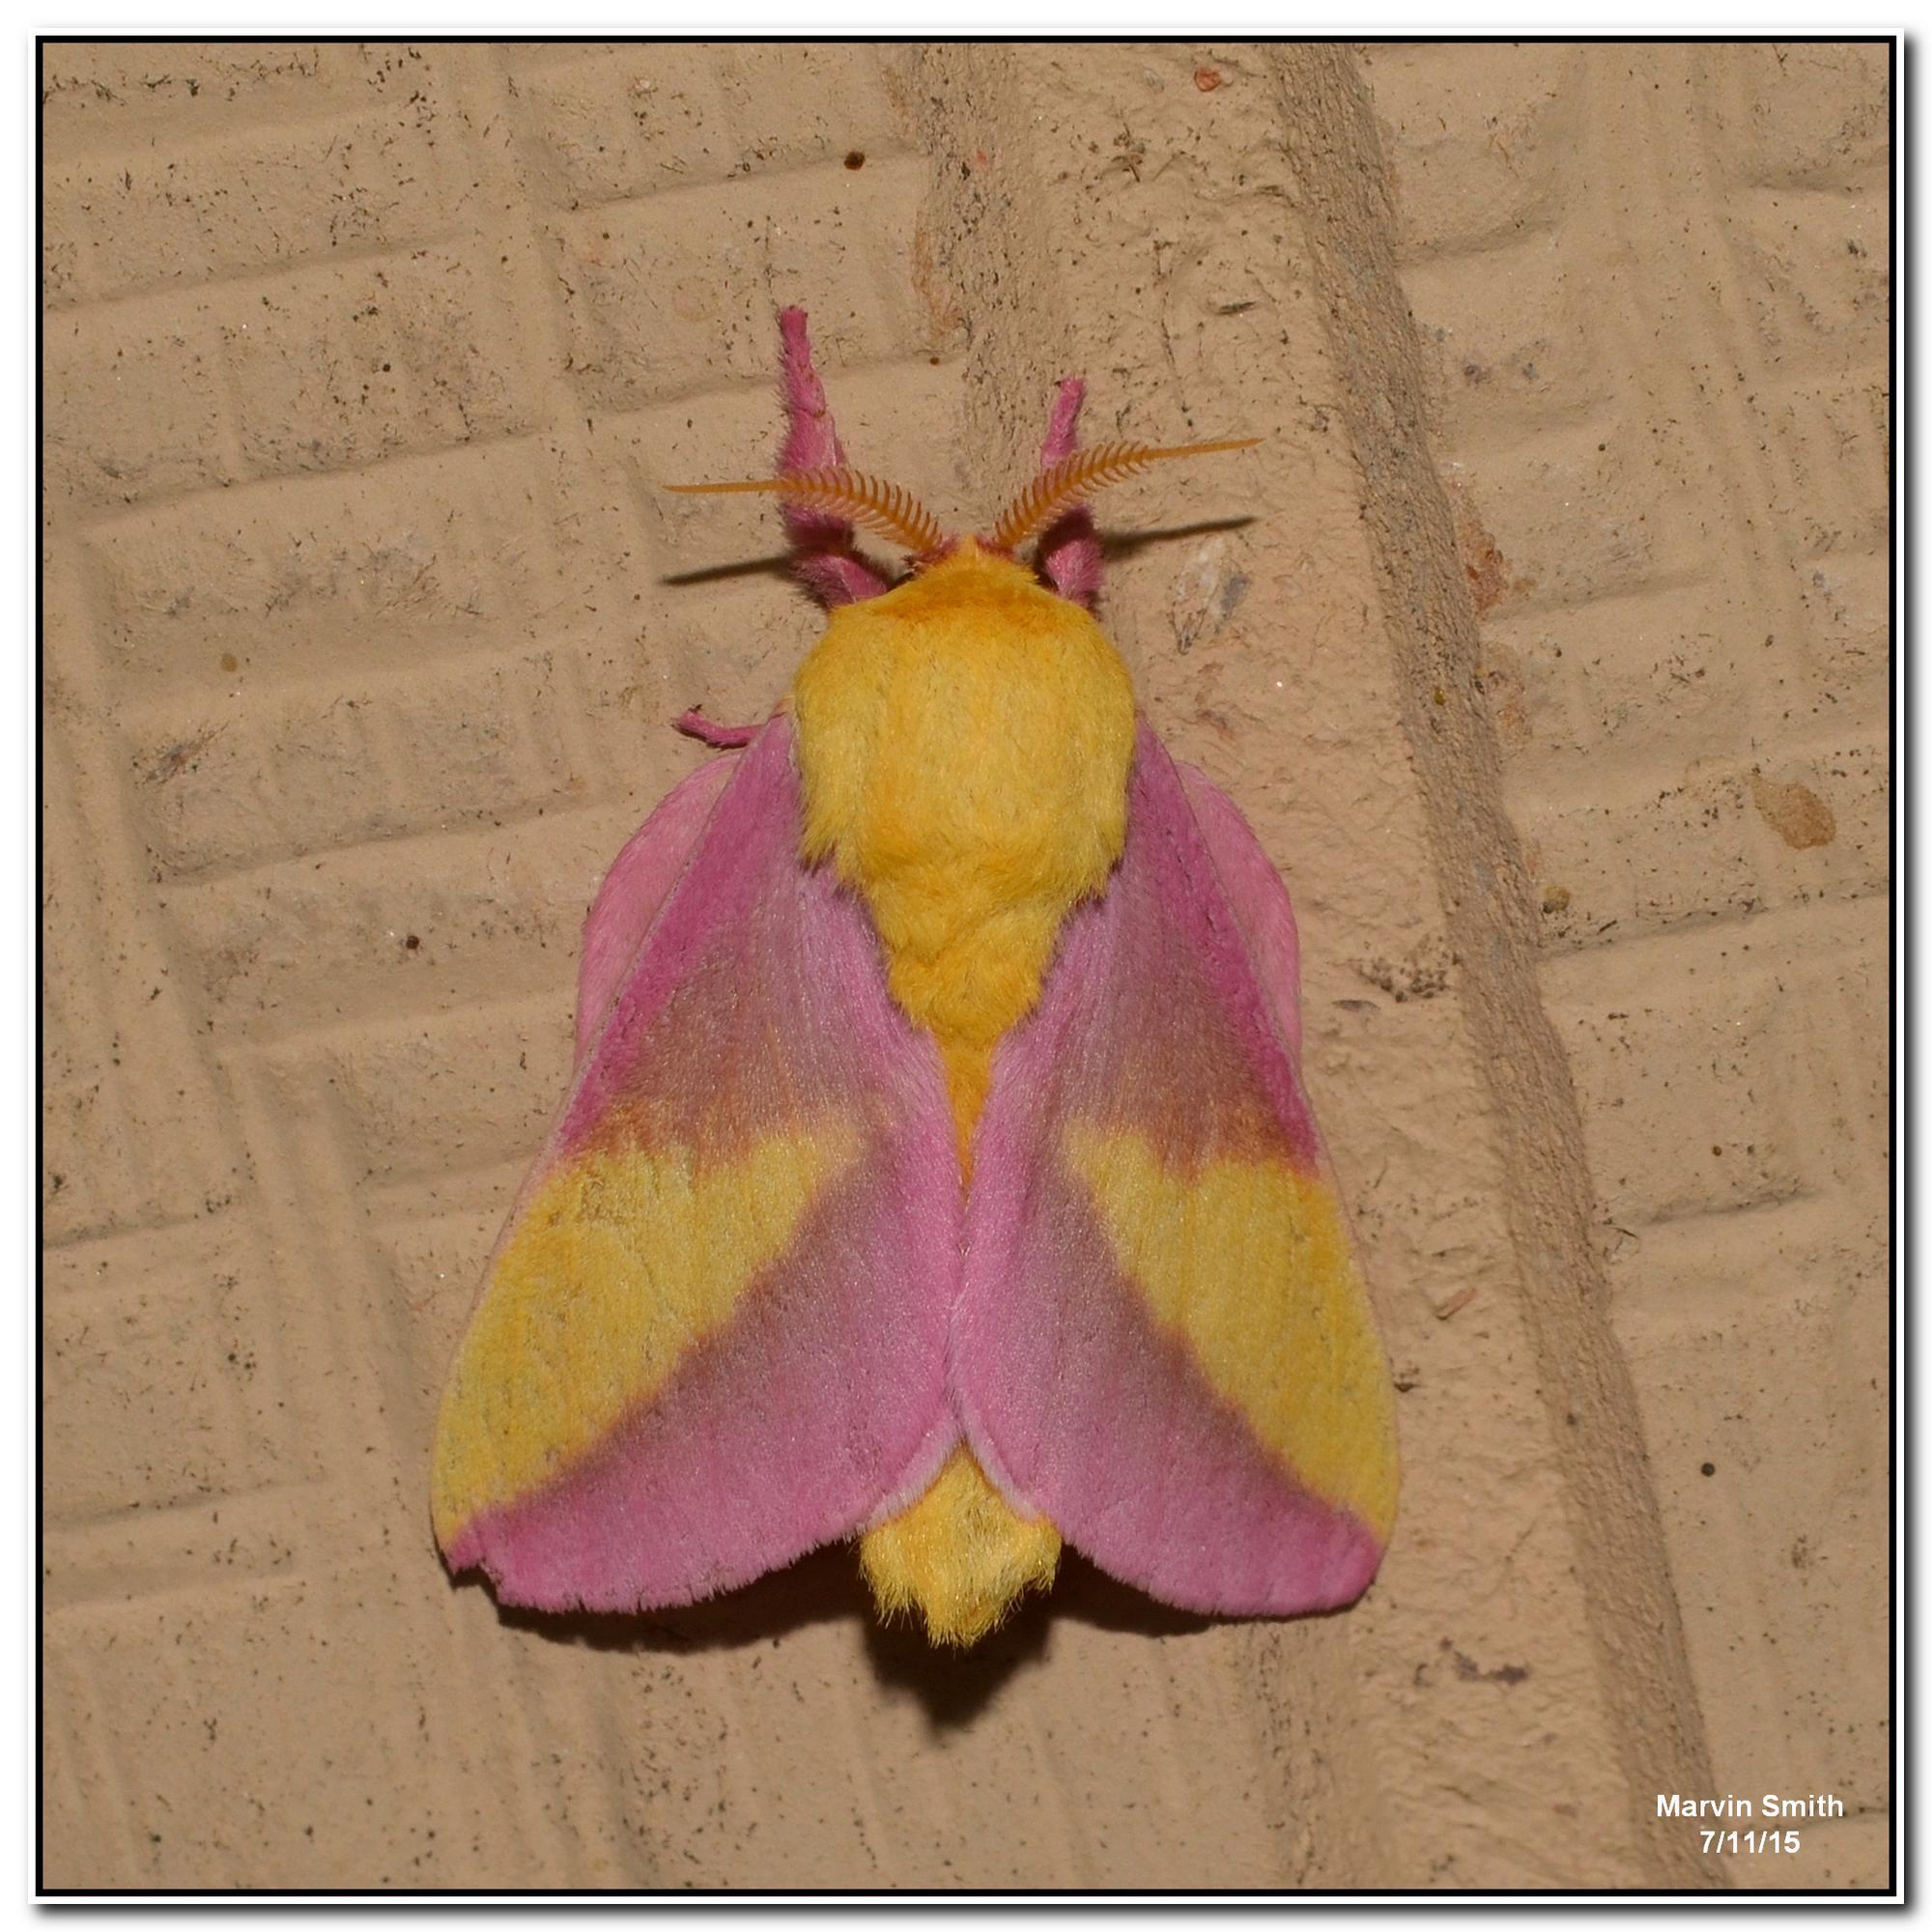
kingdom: Animalia
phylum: Arthropoda
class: Insecta
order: Lepidoptera
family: Saturniidae
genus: Dryocampa
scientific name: Dryocampa rubicunda
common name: Rosy maple moth
